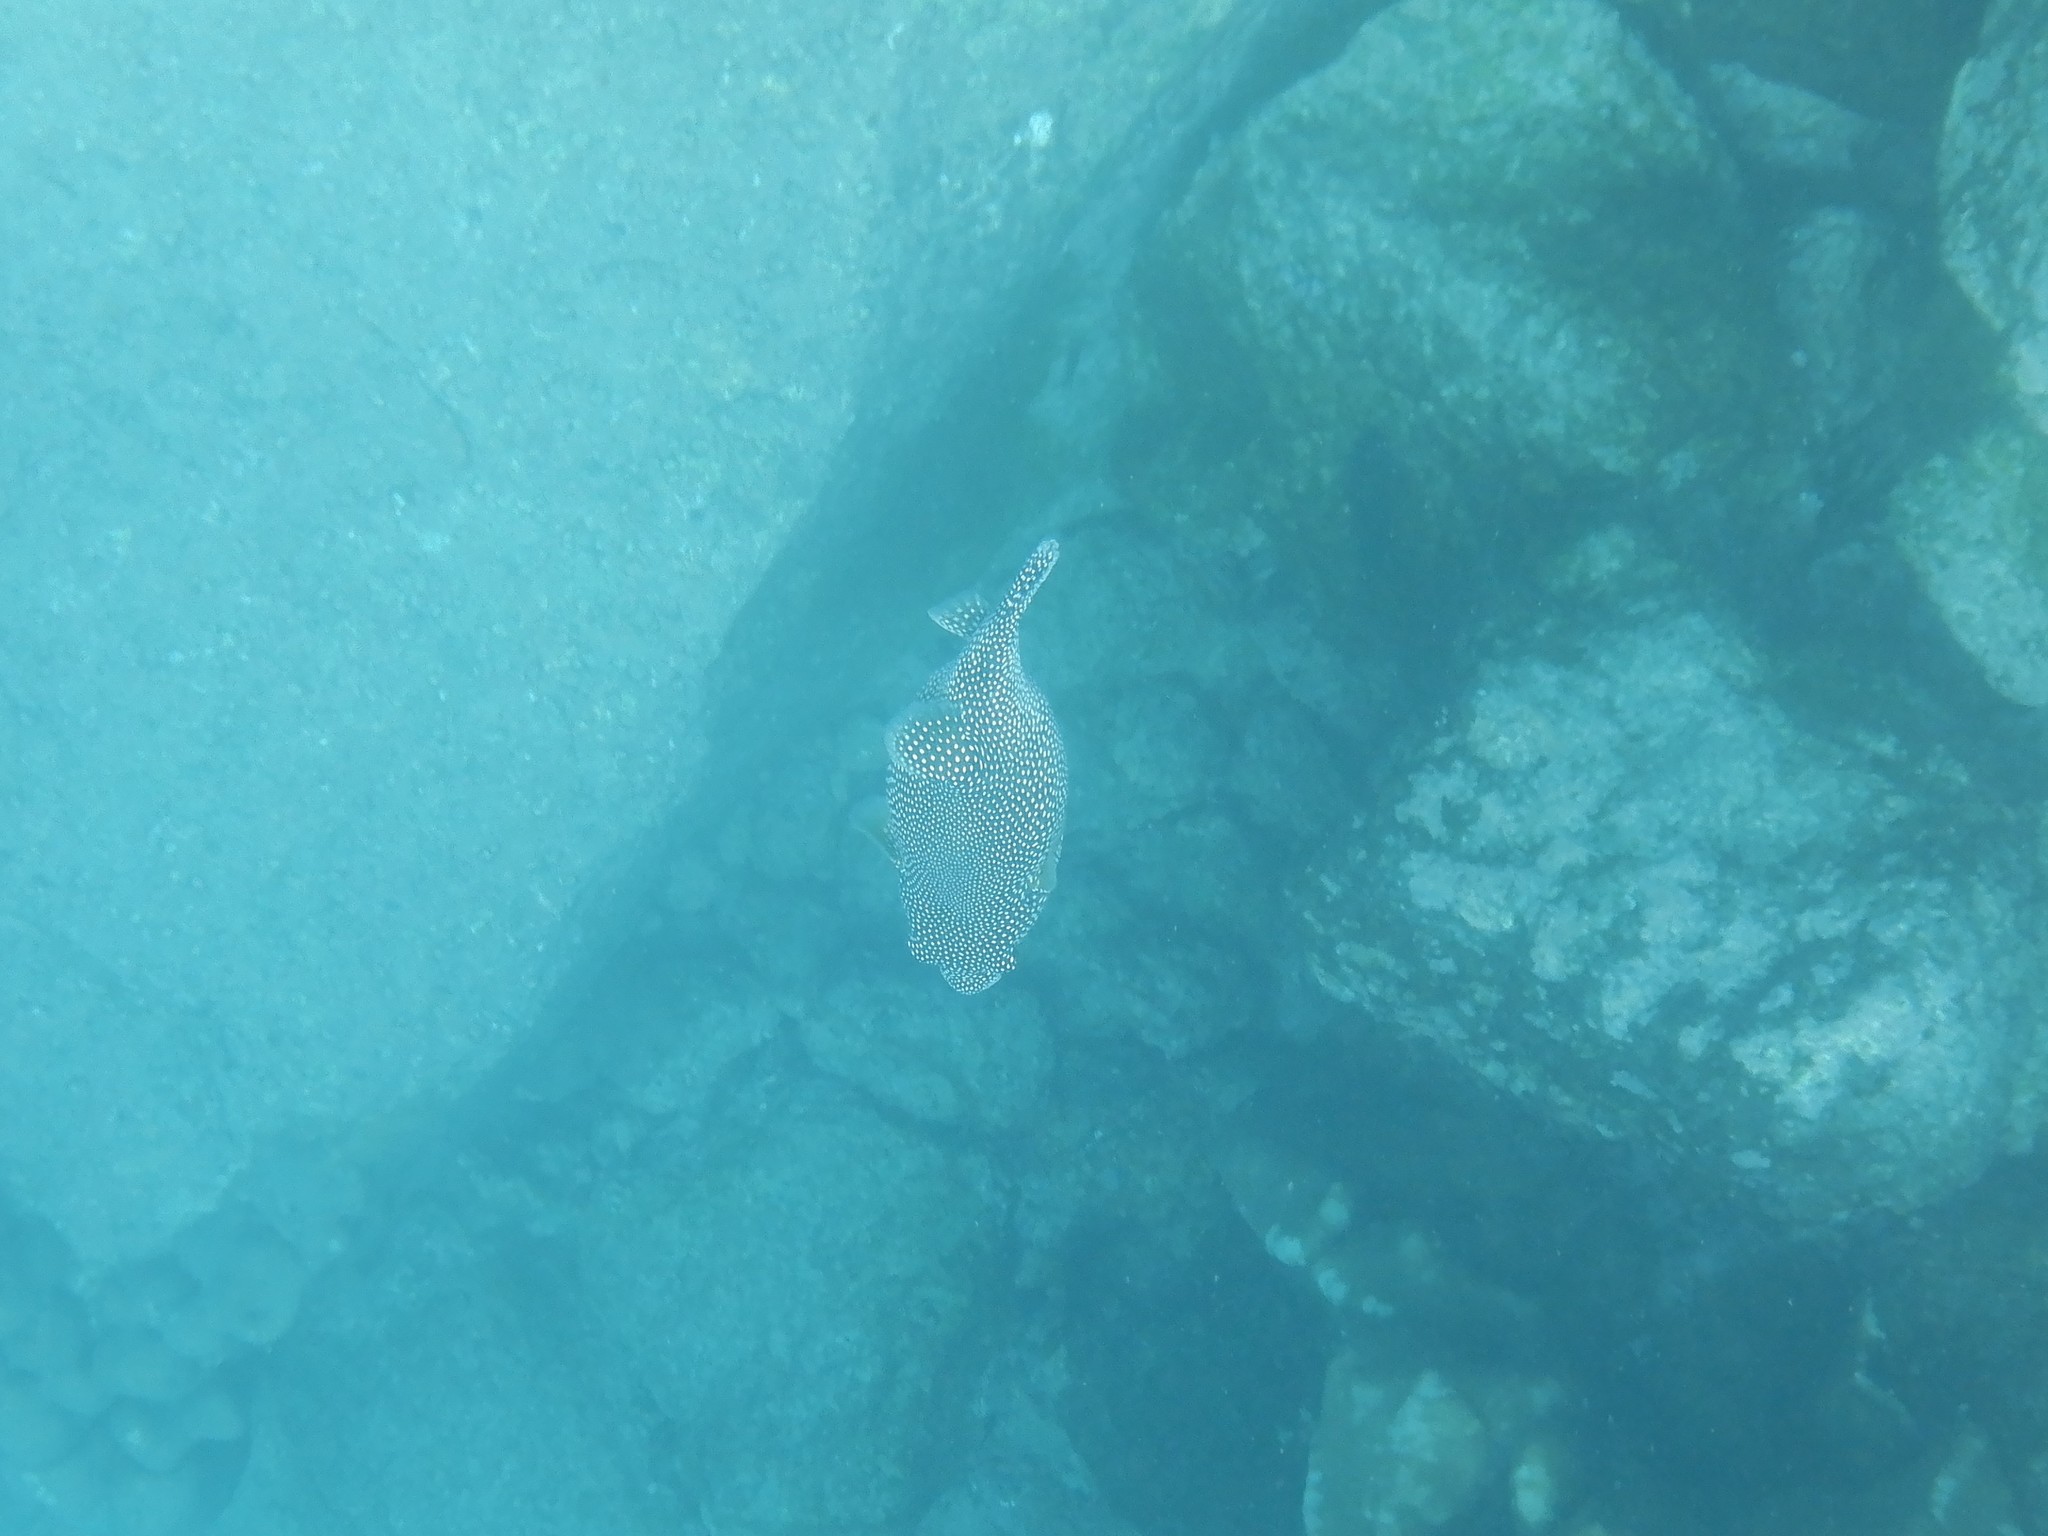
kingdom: Animalia
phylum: Chordata
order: Tetraodontiformes
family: Tetraodontidae
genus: Arothron
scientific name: Arothron meleagris
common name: Guinea-fowl pufferfish
